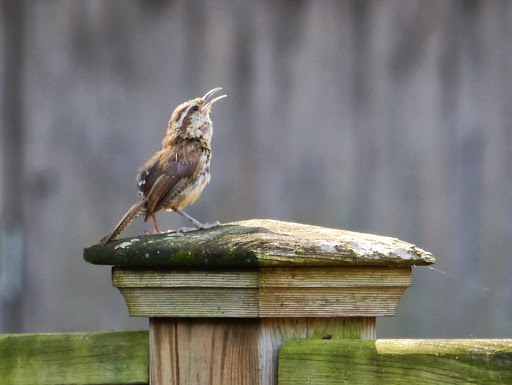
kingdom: Animalia
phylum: Chordata
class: Aves
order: Passeriformes
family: Troglodytidae
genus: Thryothorus
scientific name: Thryothorus ludovicianus
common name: Carolina wren
